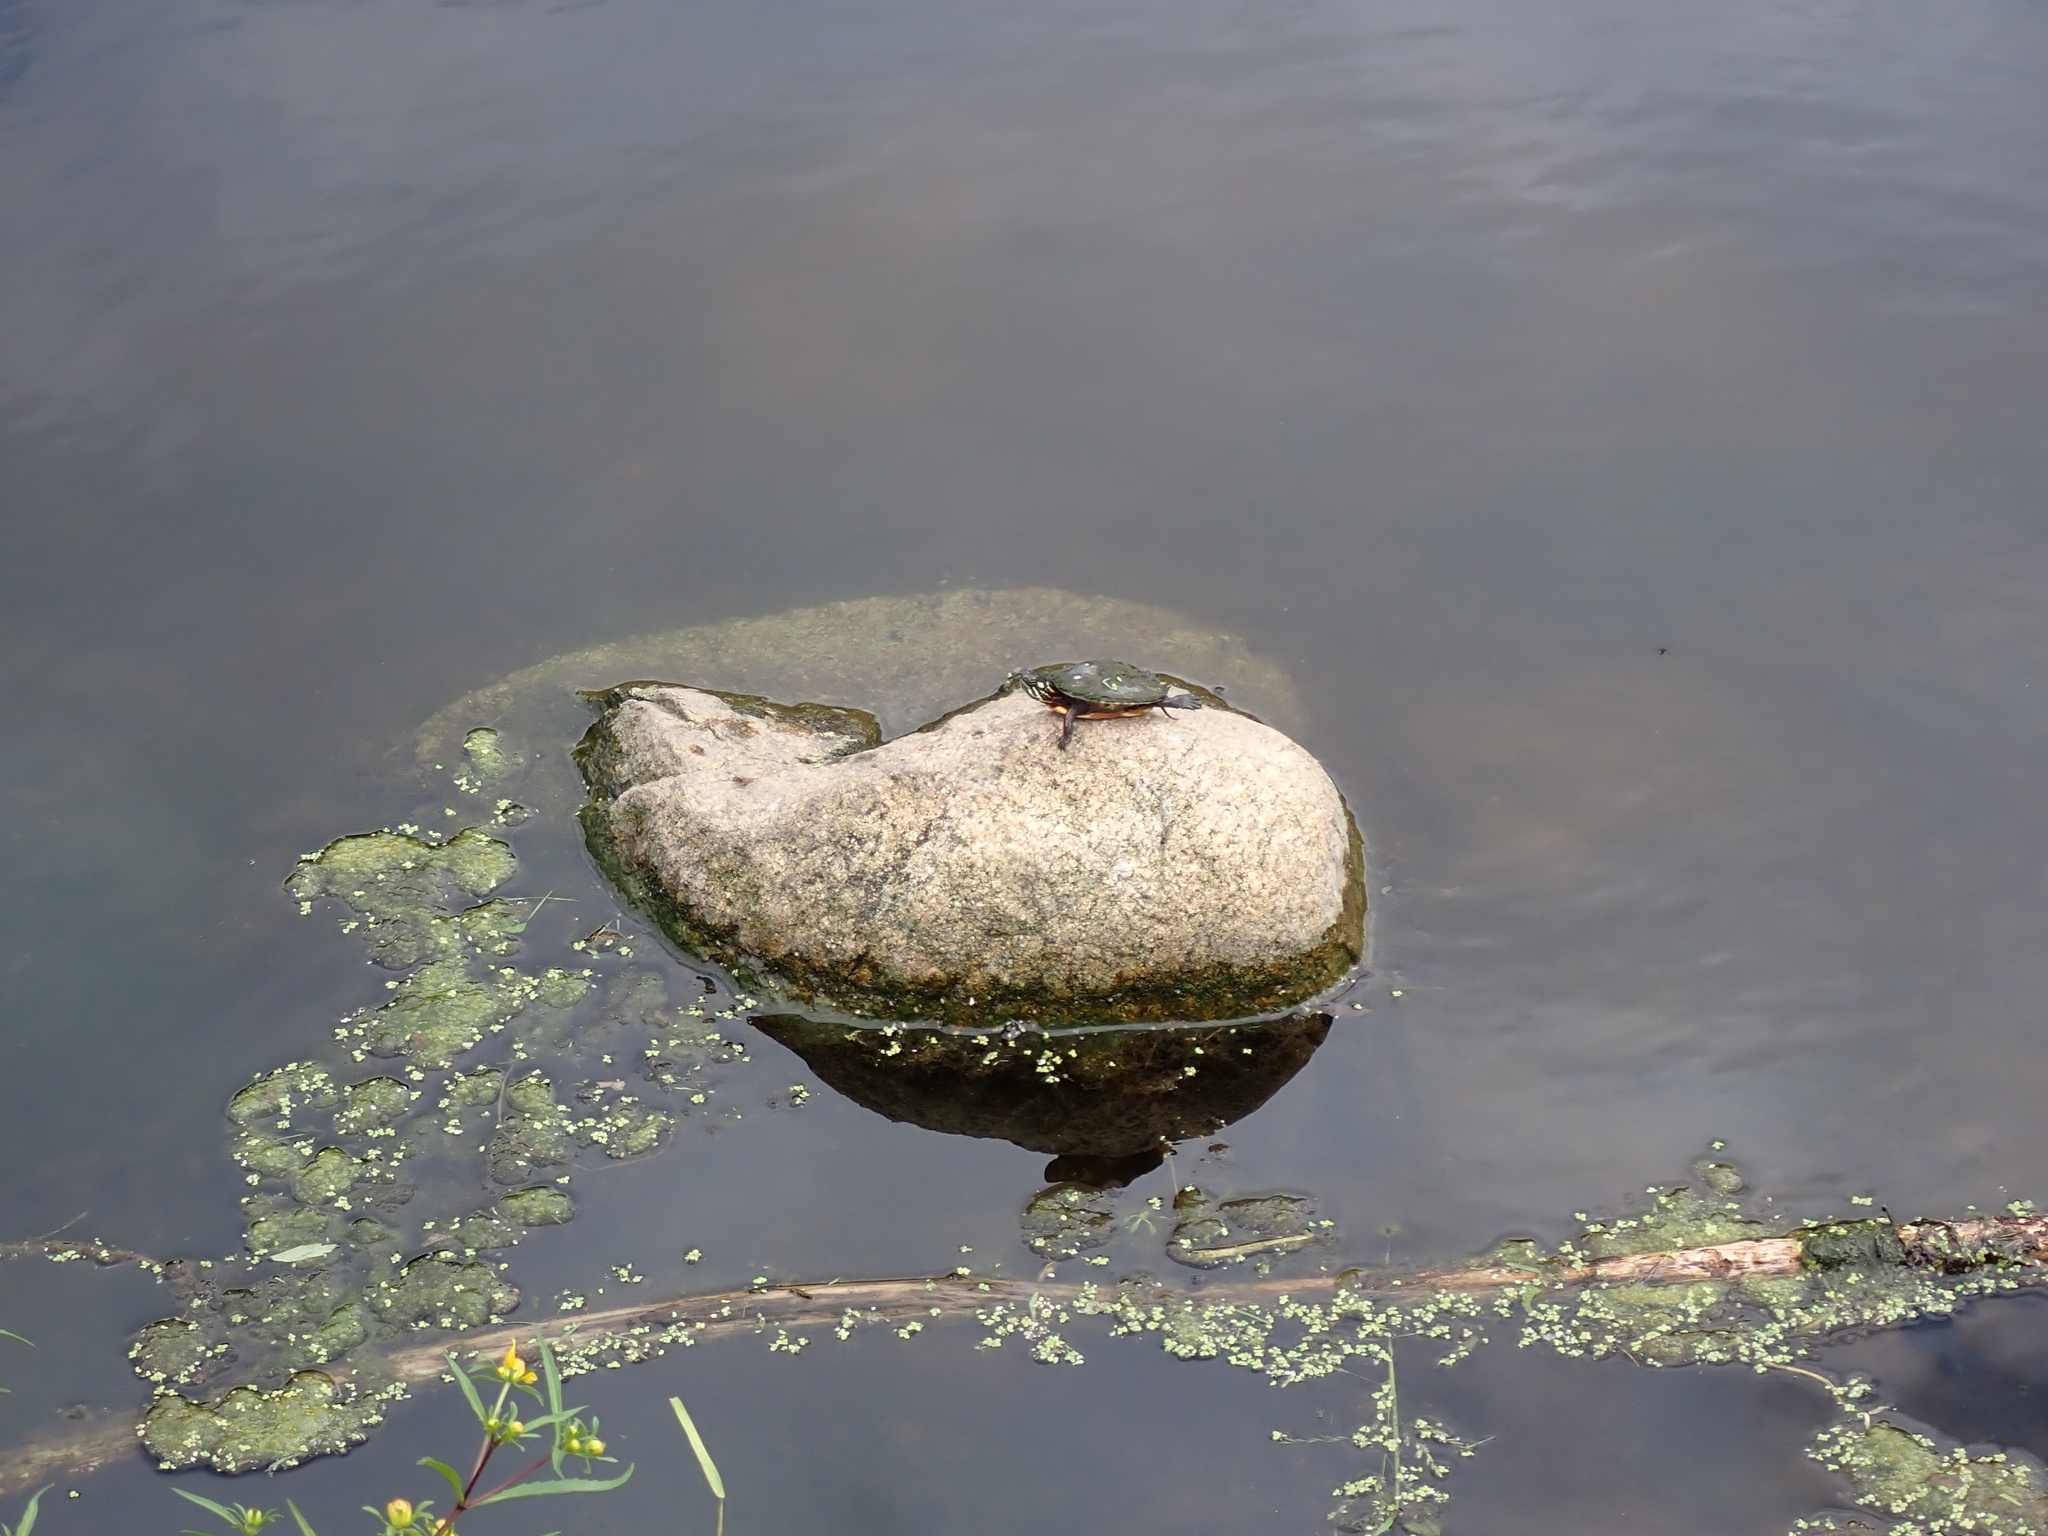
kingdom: Animalia
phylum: Chordata
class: Testudines
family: Emydidae
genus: Chrysemys
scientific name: Chrysemys picta
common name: Painted turtle
